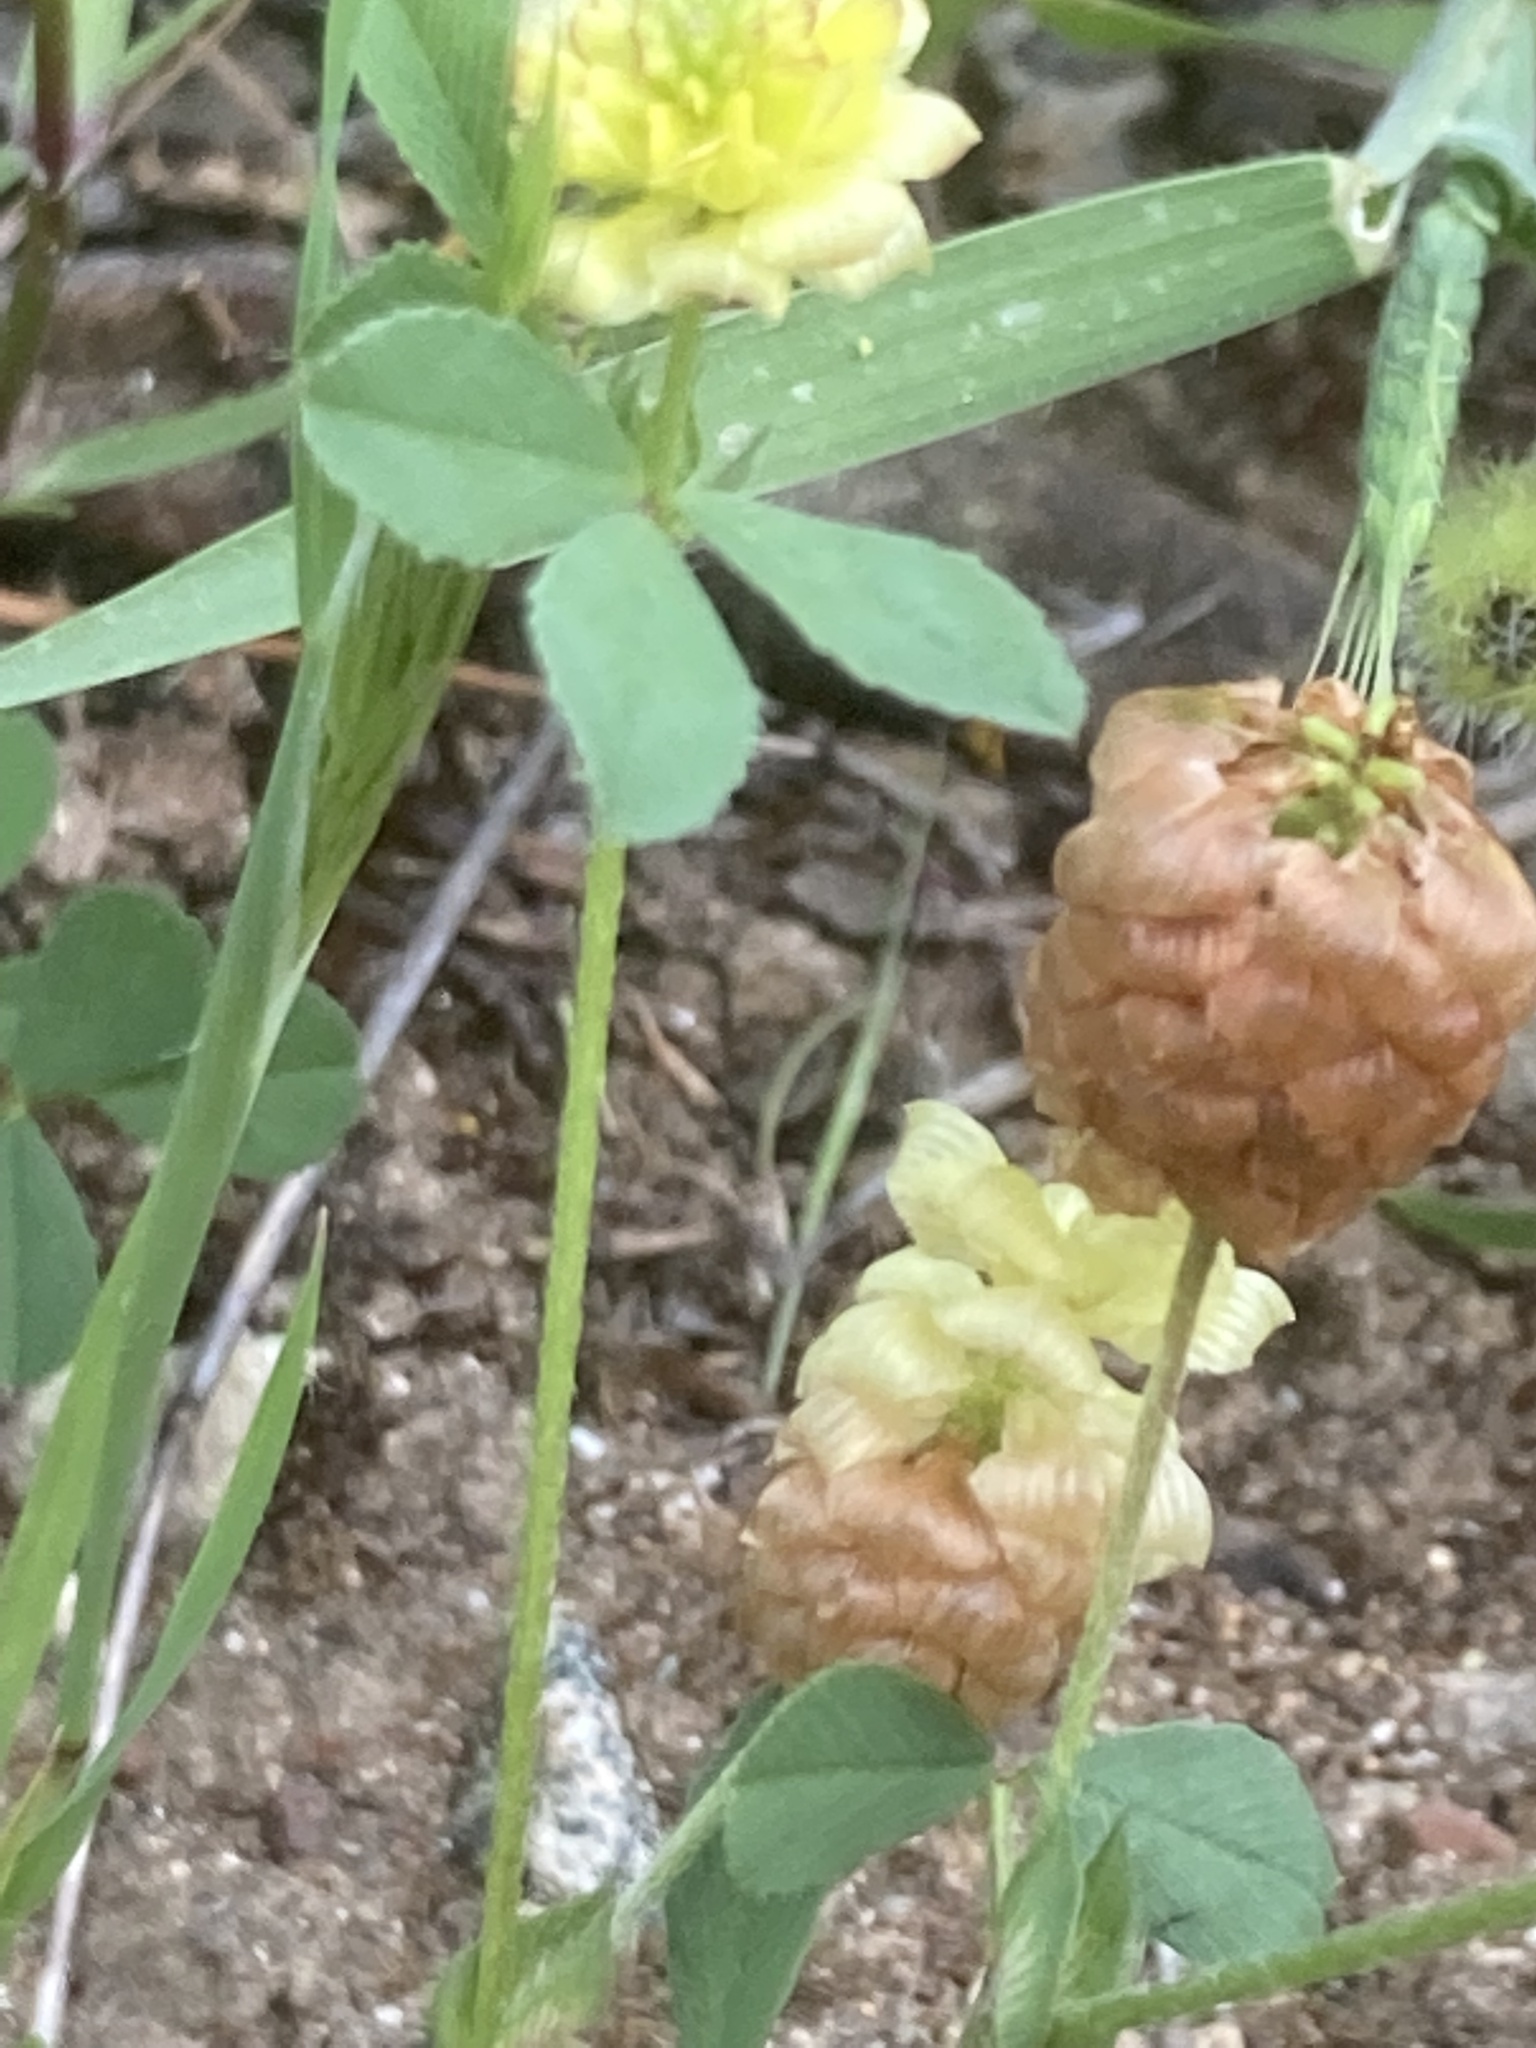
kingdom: Plantae
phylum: Tracheophyta
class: Magnoliopsida
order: Fabales
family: Fabaceae
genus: Trifolium
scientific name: Trifolium campestre
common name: Field clover
